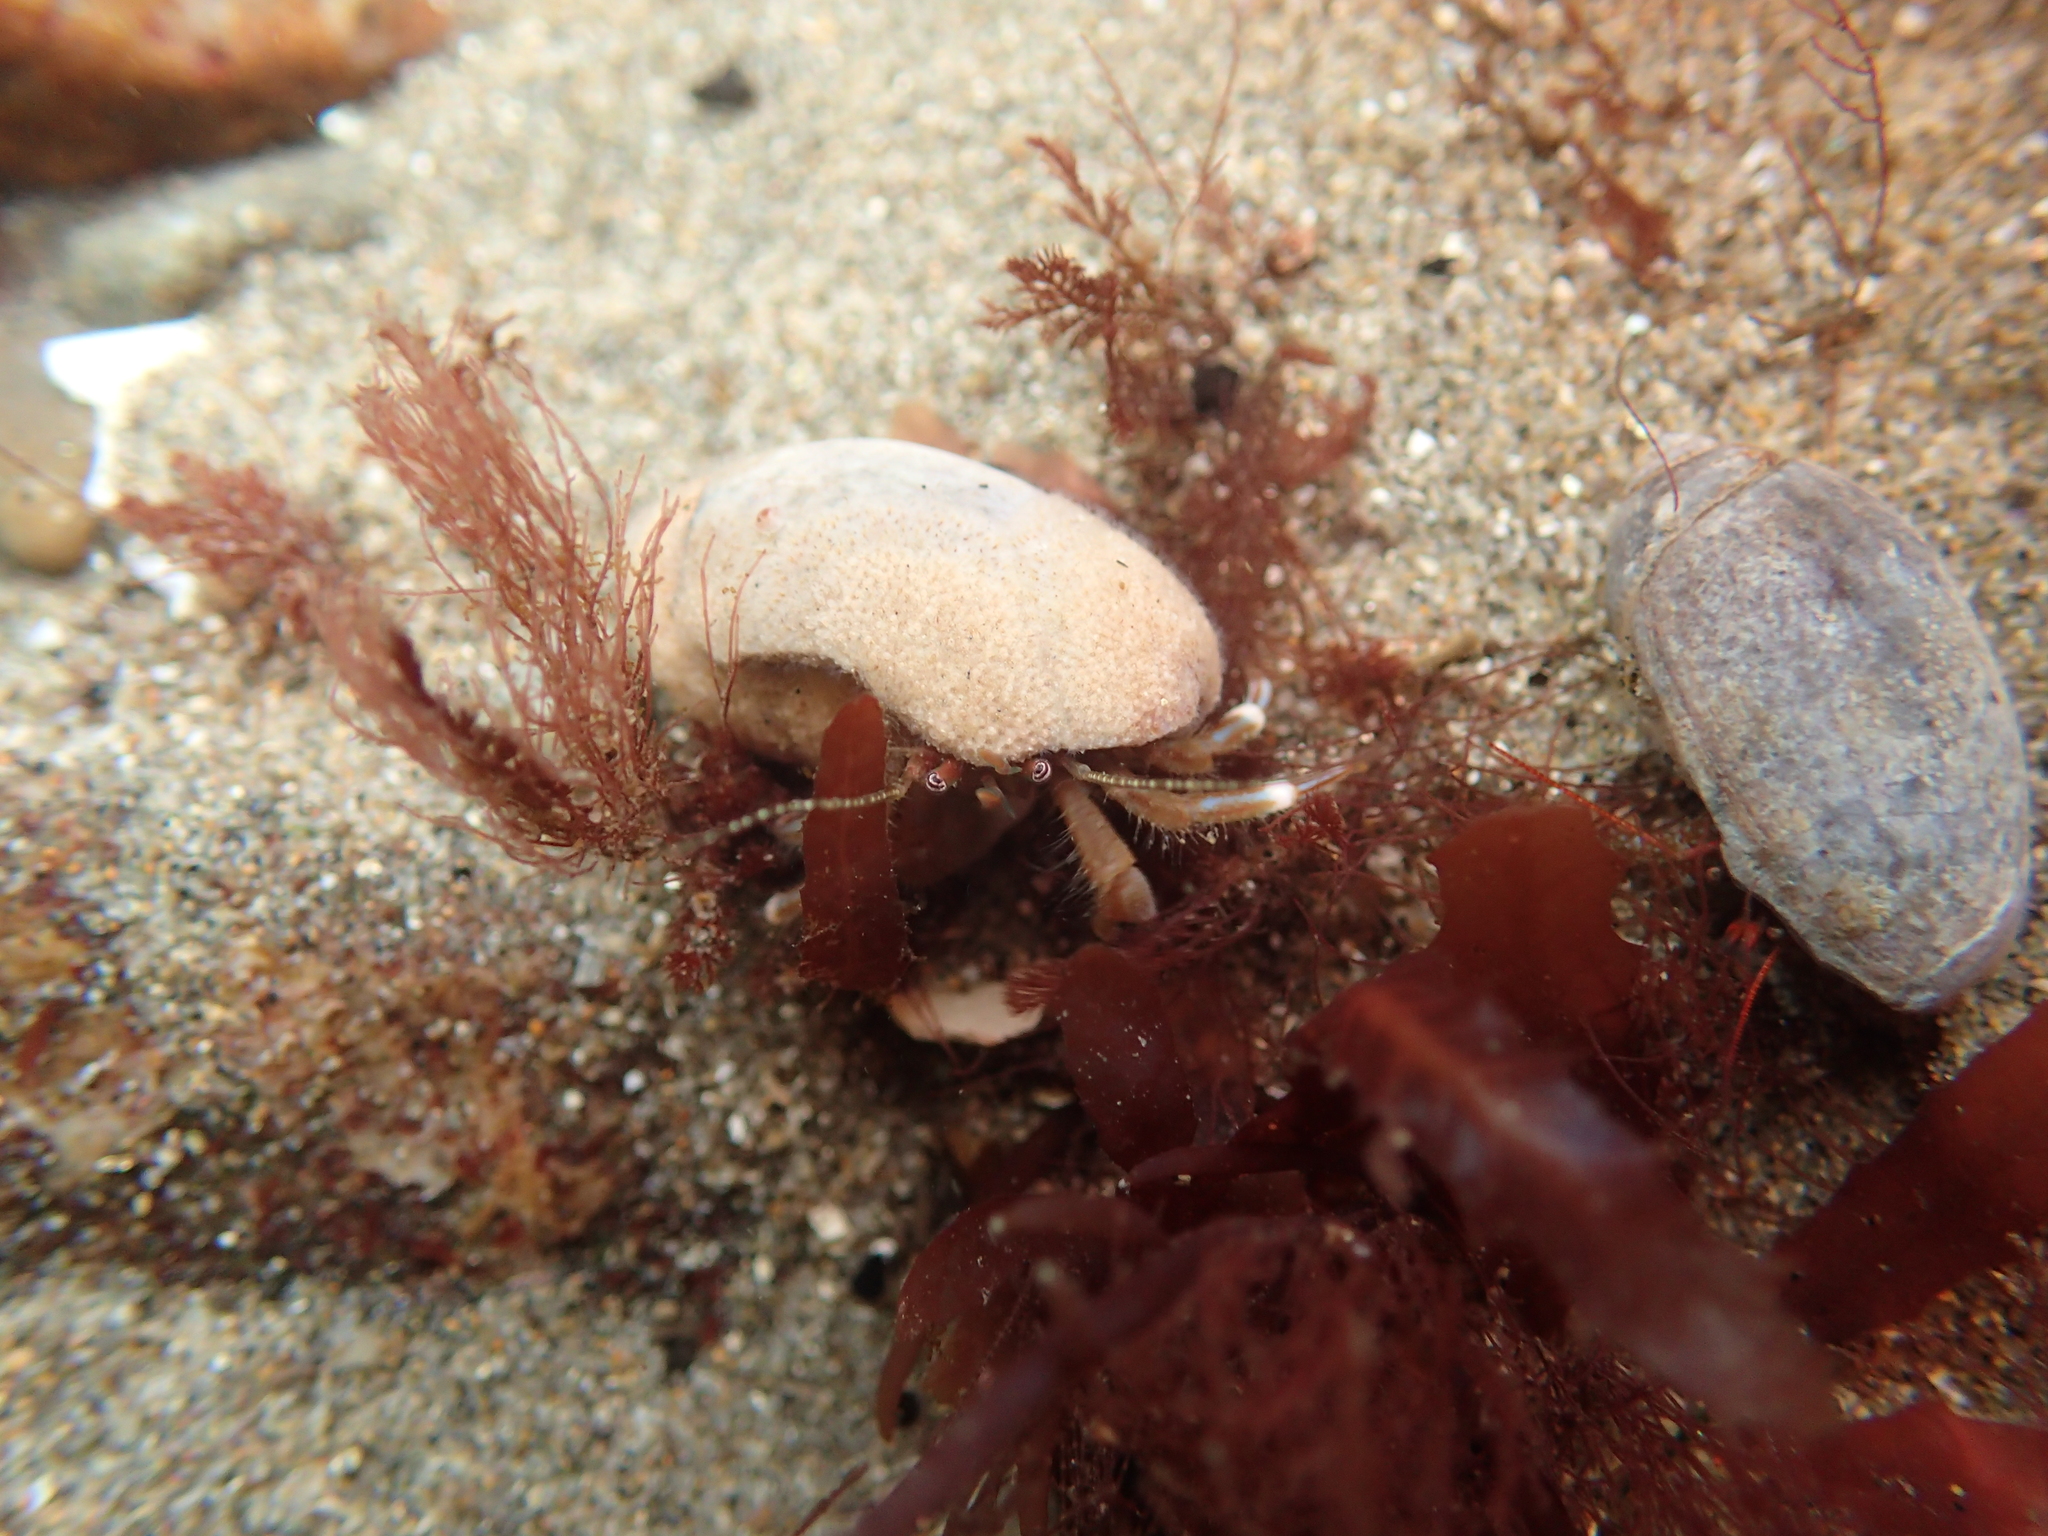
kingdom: Animalia
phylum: Arthropoda
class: Malacostraca
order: Decapoda
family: Paguridae
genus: Pagurus
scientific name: Pagurus hirsutiusculus
